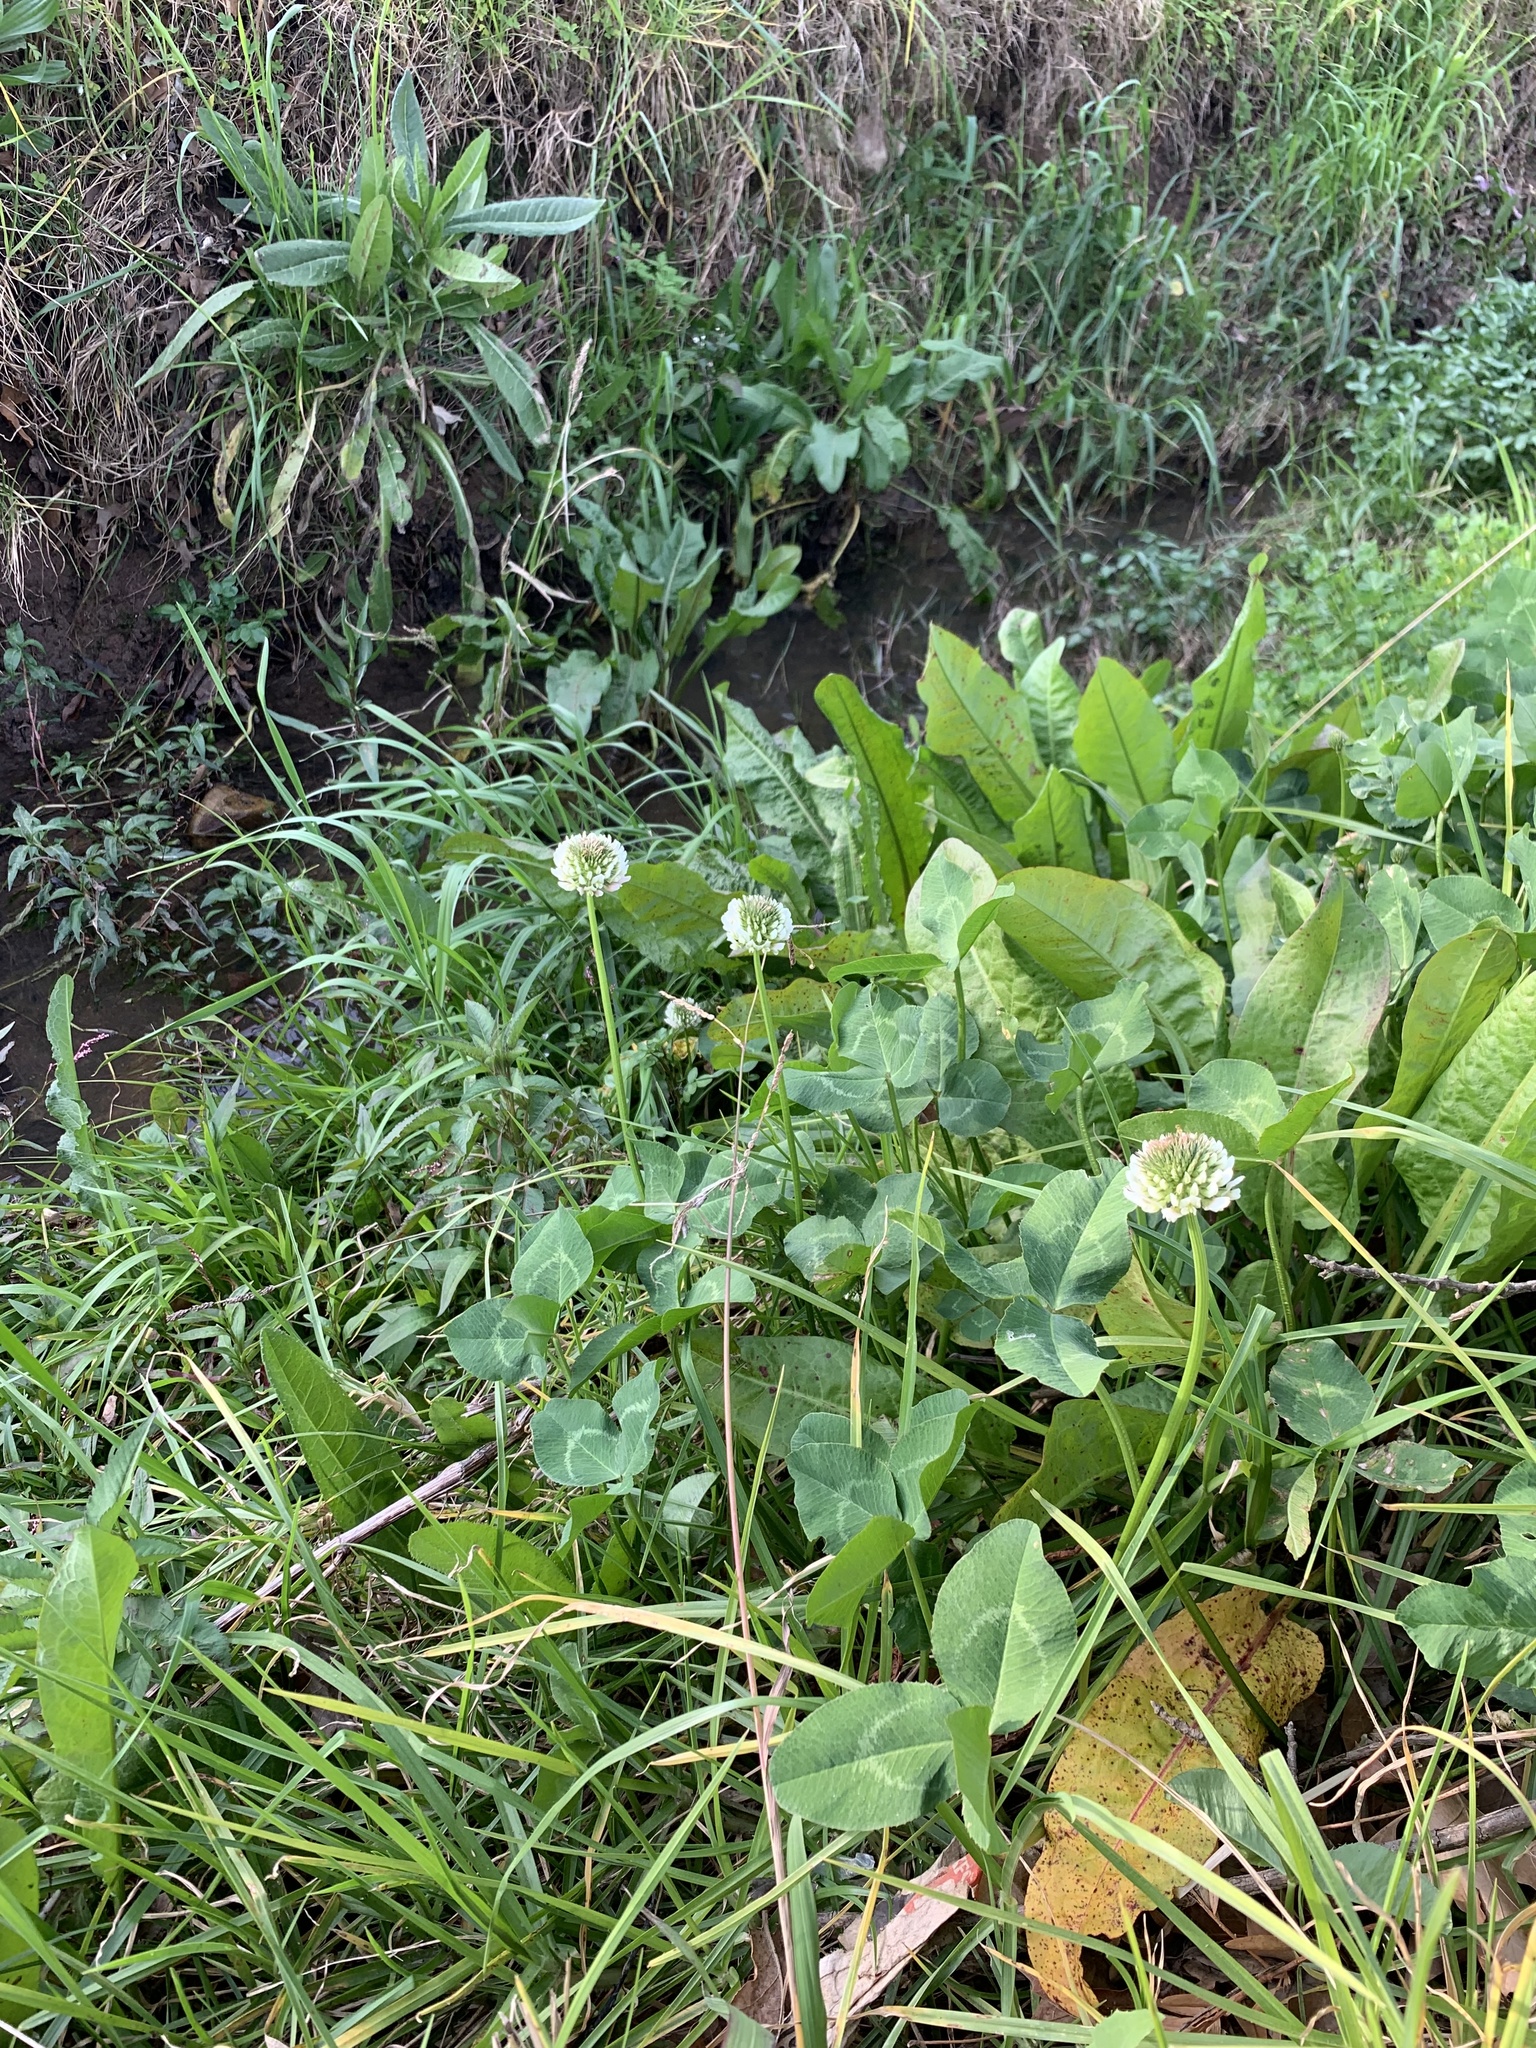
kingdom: Plantae
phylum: Tracheophyta
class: Magnoliopsida
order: Fabales
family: Fabaceae
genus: Trifolium
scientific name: Trifolium repens
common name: White clover
